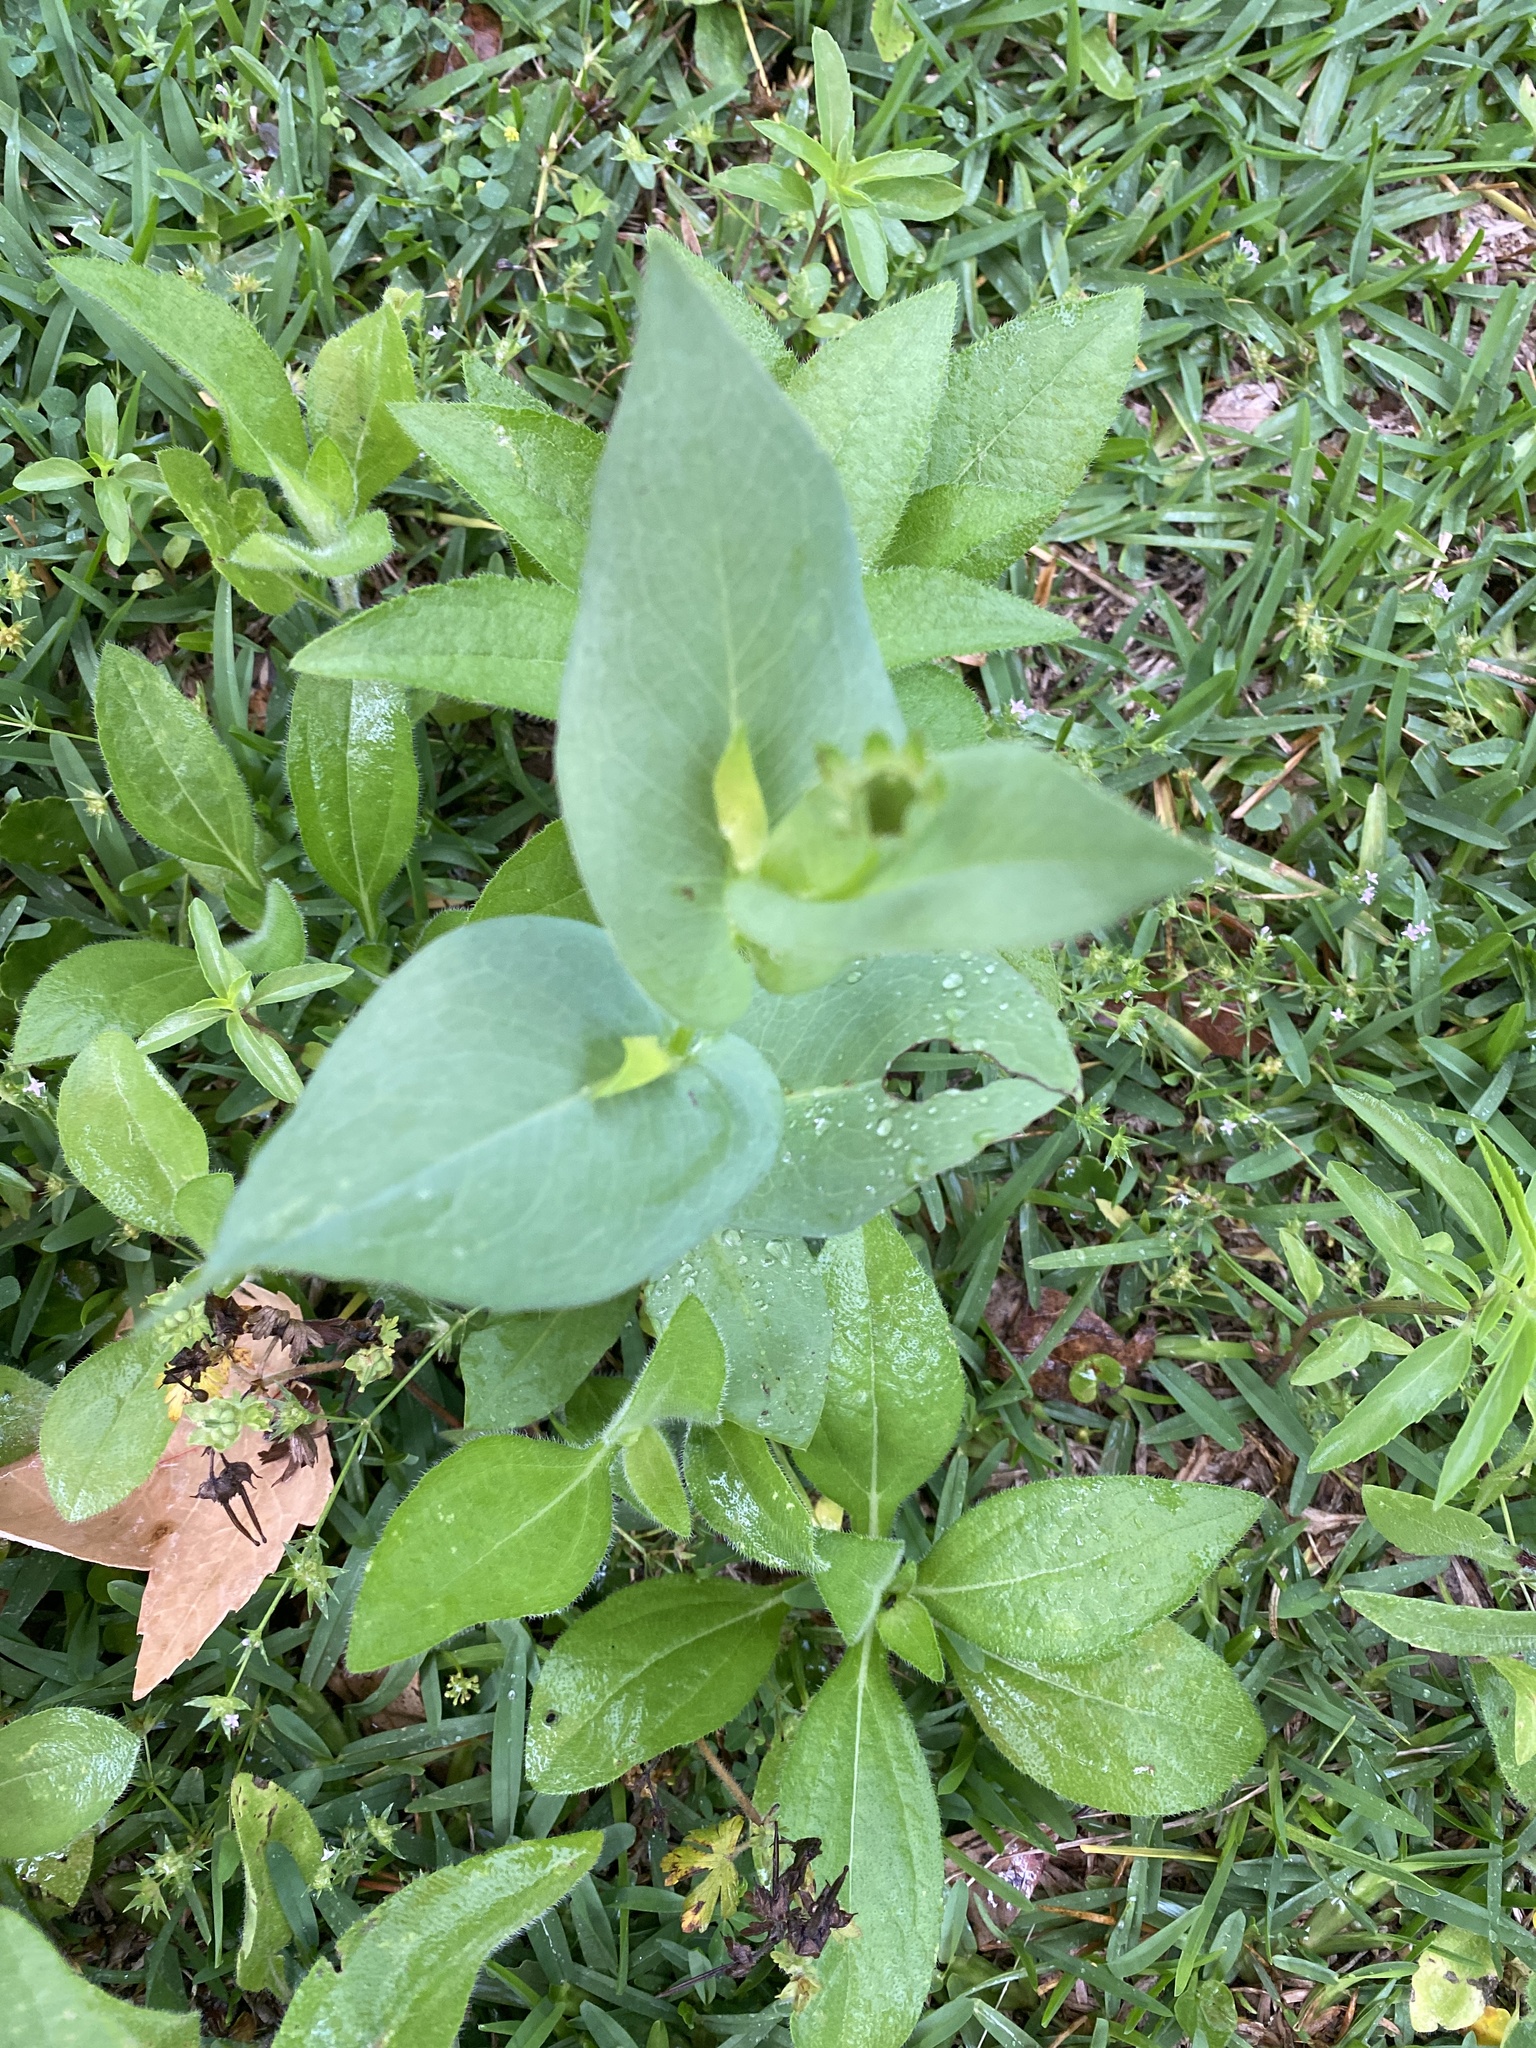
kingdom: Plantae
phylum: Tracheophyta
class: Magnoliopsida
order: Asterales
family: Asteraceae
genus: Rudbeckia
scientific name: Rudbeckia amplexicaulis
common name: Clasping-leaf coneflower
